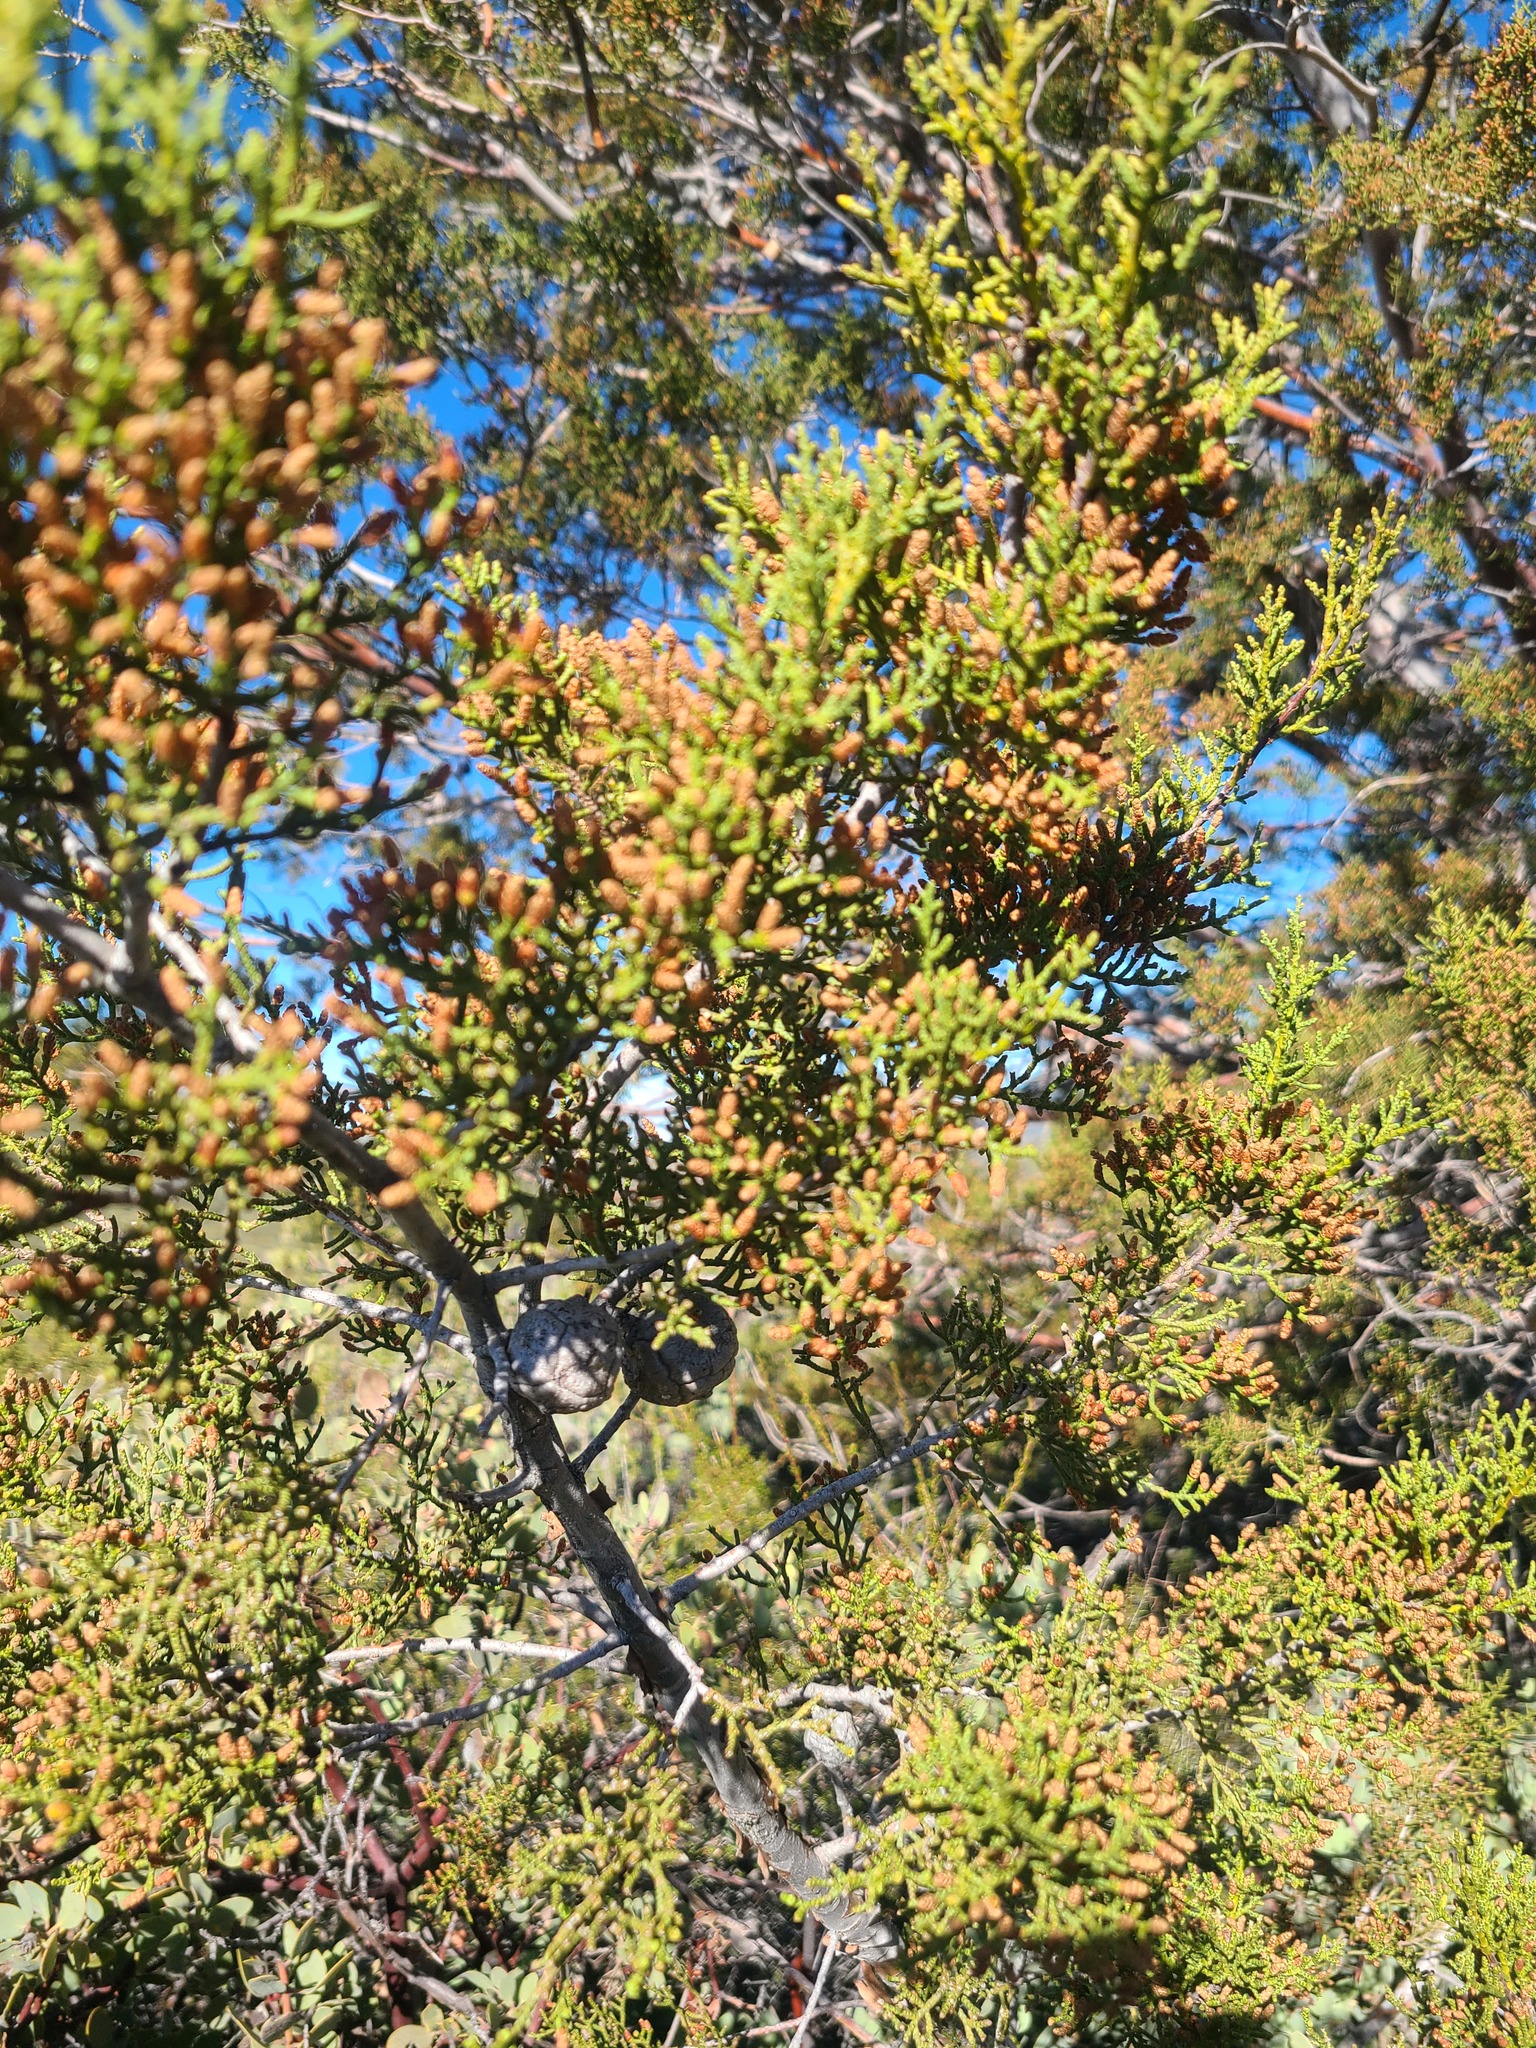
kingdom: Plantae
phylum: Tracheophyta
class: Pinopsida
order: Pinales
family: Cupressaceae
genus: Cupressus
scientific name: Cupressus guadalupensis
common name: Forbes cypress
